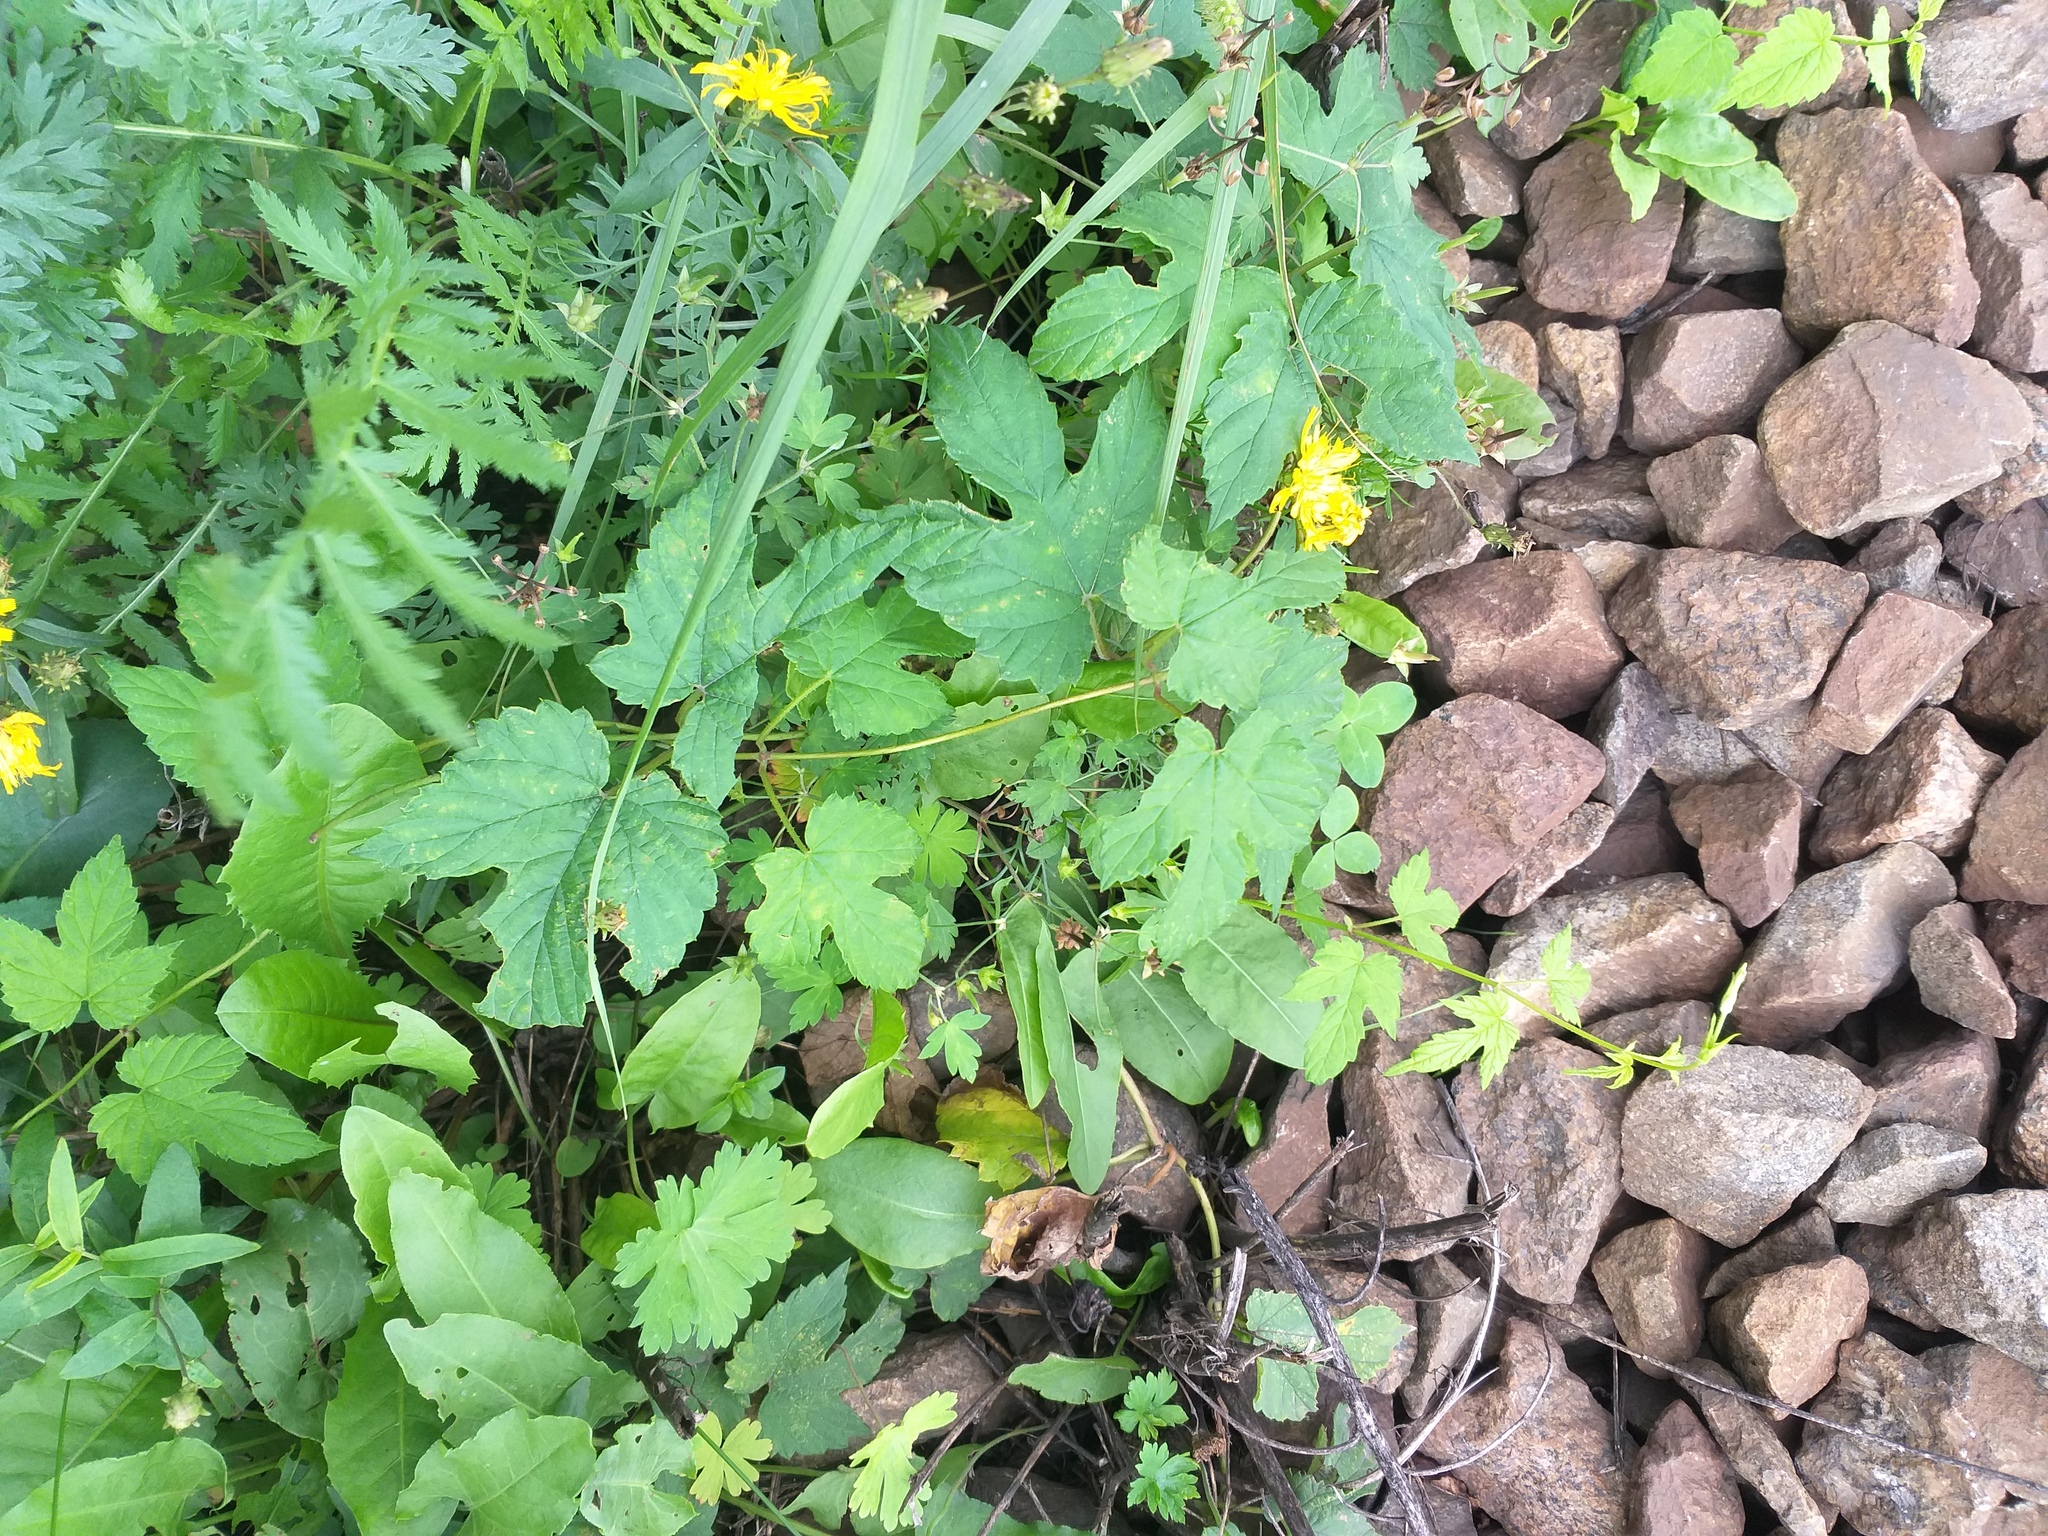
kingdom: Plantae
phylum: Tracheophyta
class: Magnoliopsida
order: Rosales
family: Cannabaceae
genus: Humulus
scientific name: Humulus lupulus
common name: Hop
